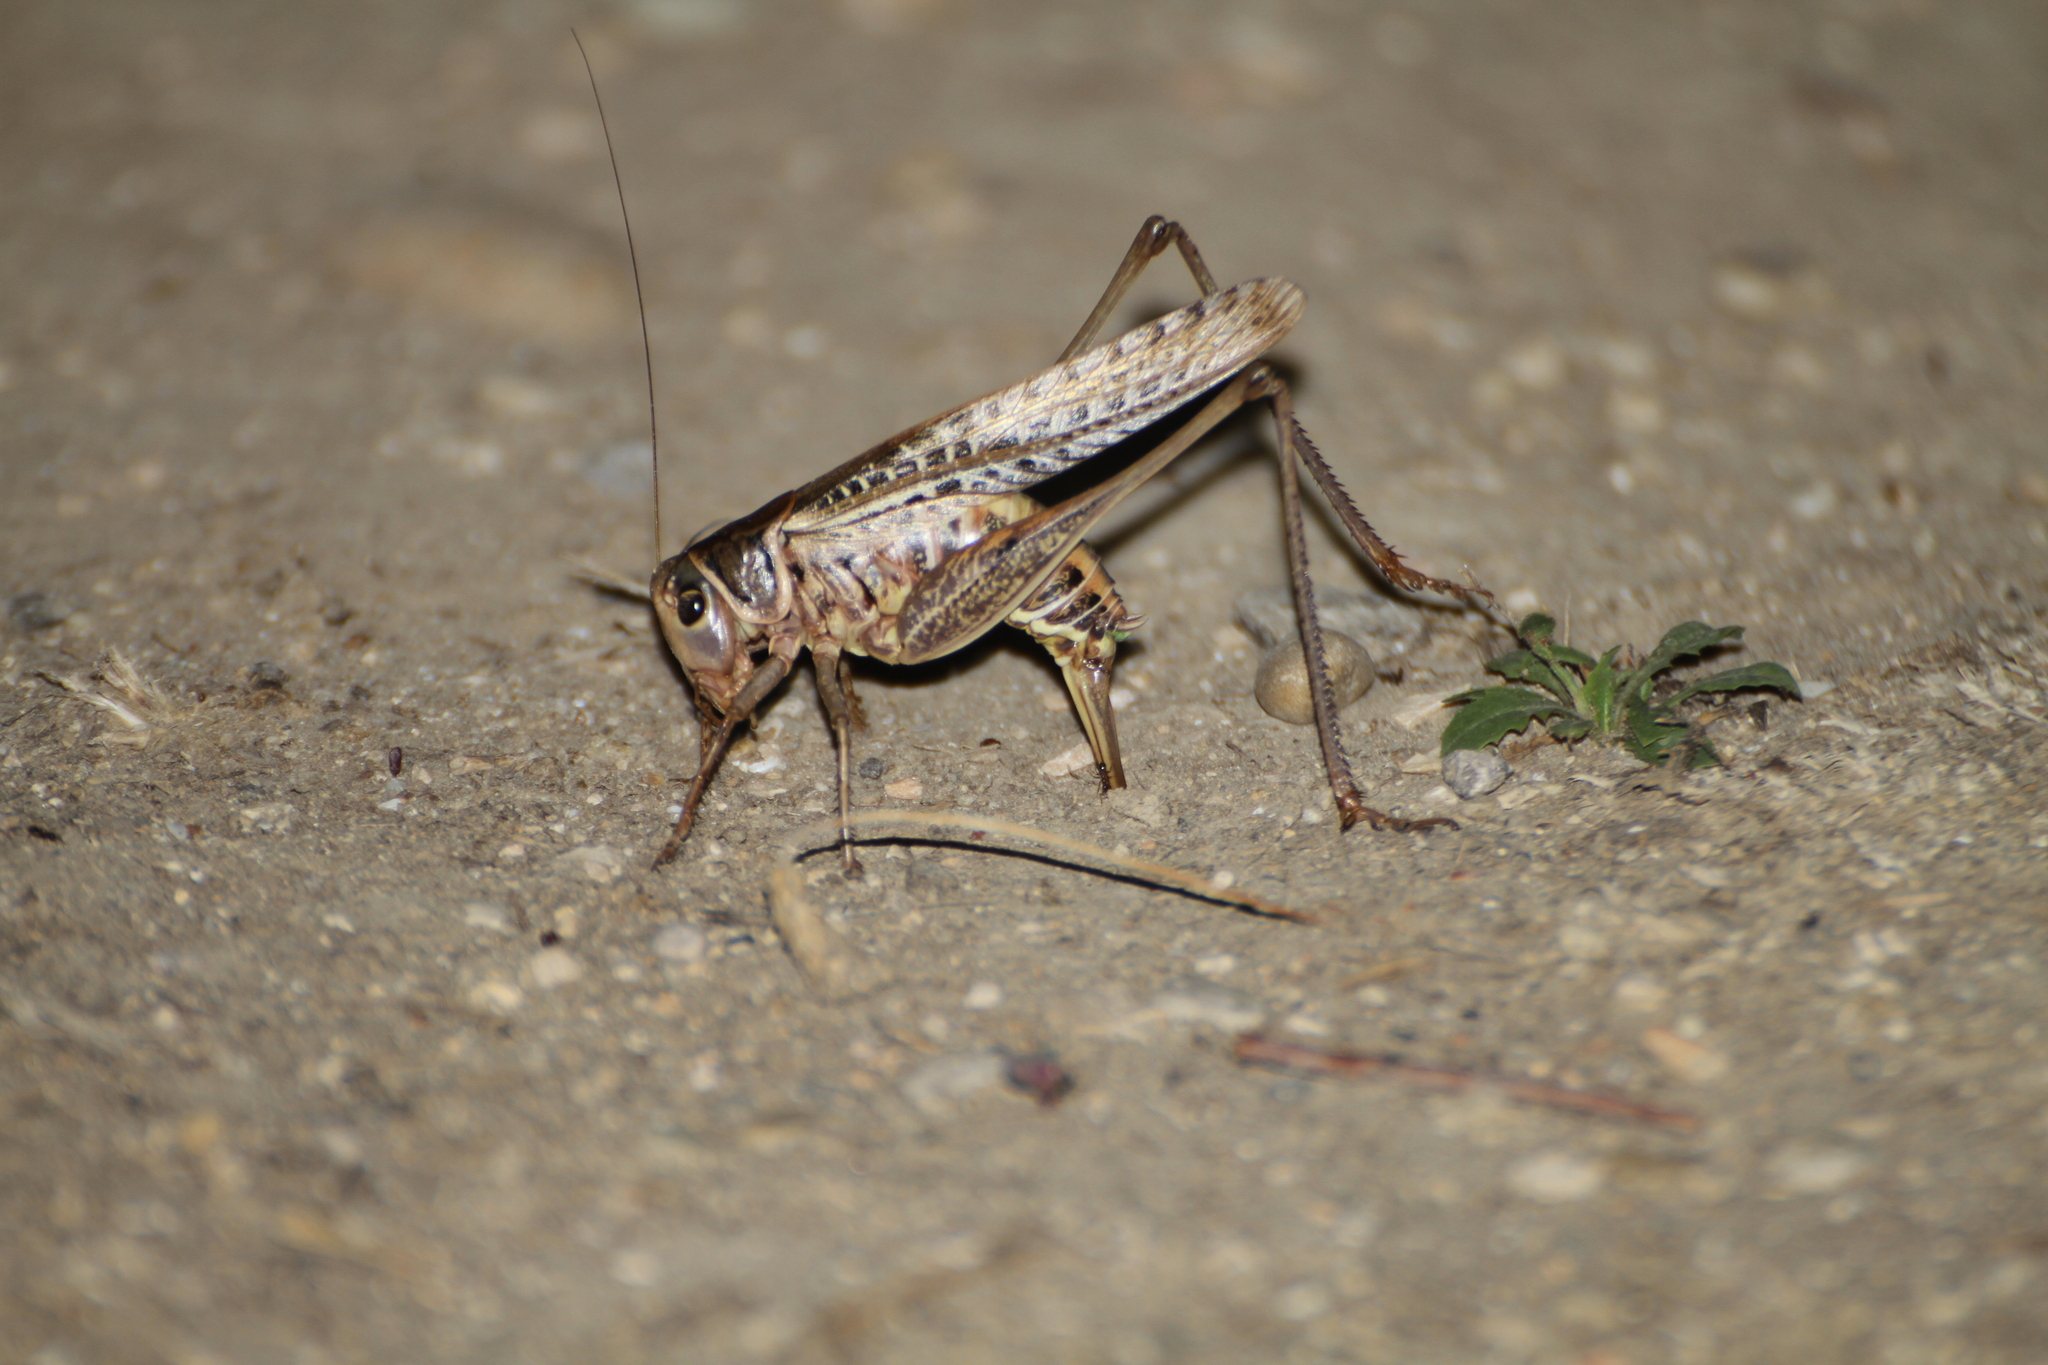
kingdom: Animalia
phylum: Arthropoda
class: Insecta
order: Orthoptera
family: Tettigoniidae
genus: Decticus
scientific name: Decticus albifrons
